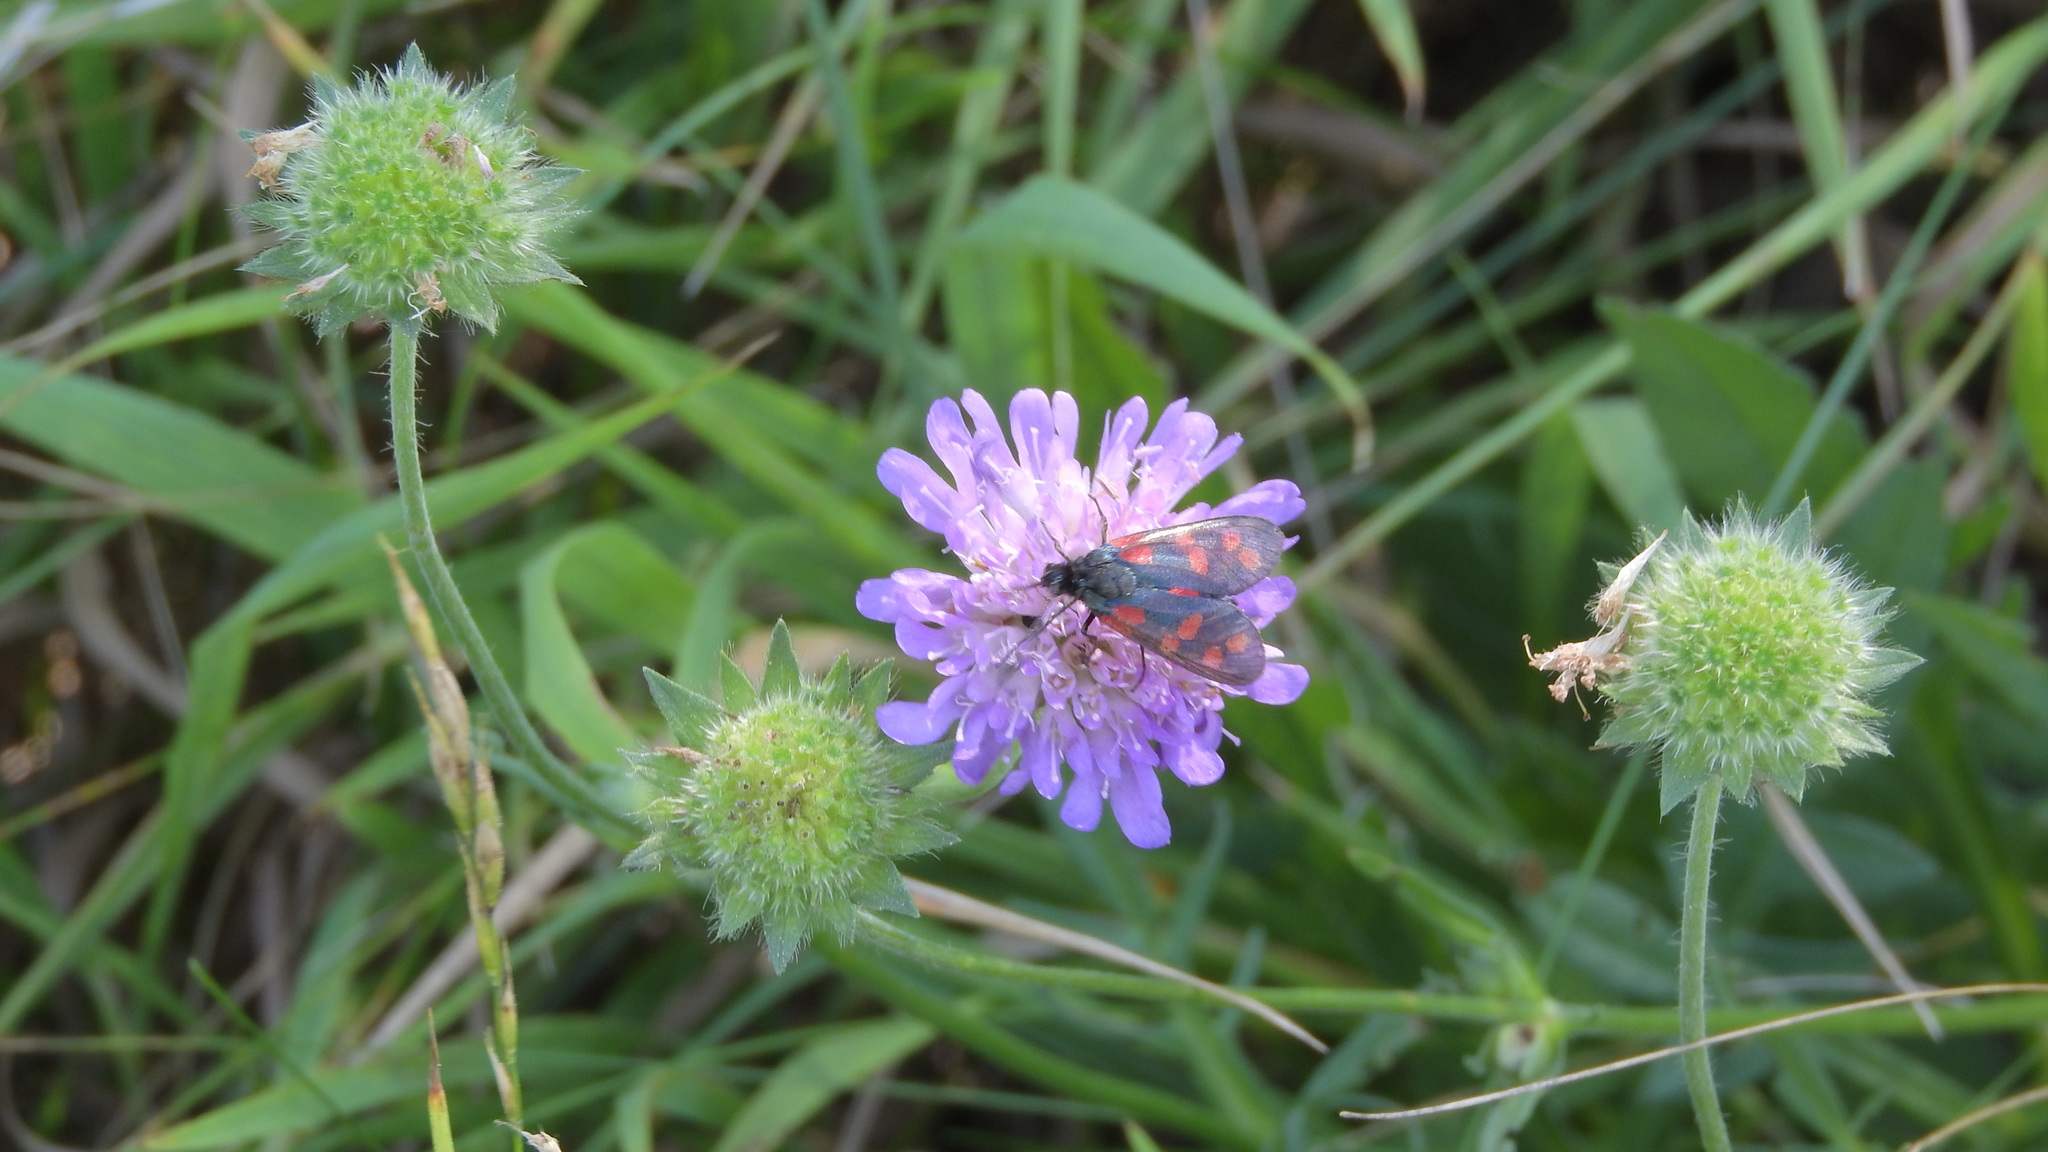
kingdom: Animalia
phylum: Arthropoda
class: Insecta
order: Lepidoptera
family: Zygaenidae
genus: Zygaena
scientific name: Zygaena filipendulae
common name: Six-spot burnet
